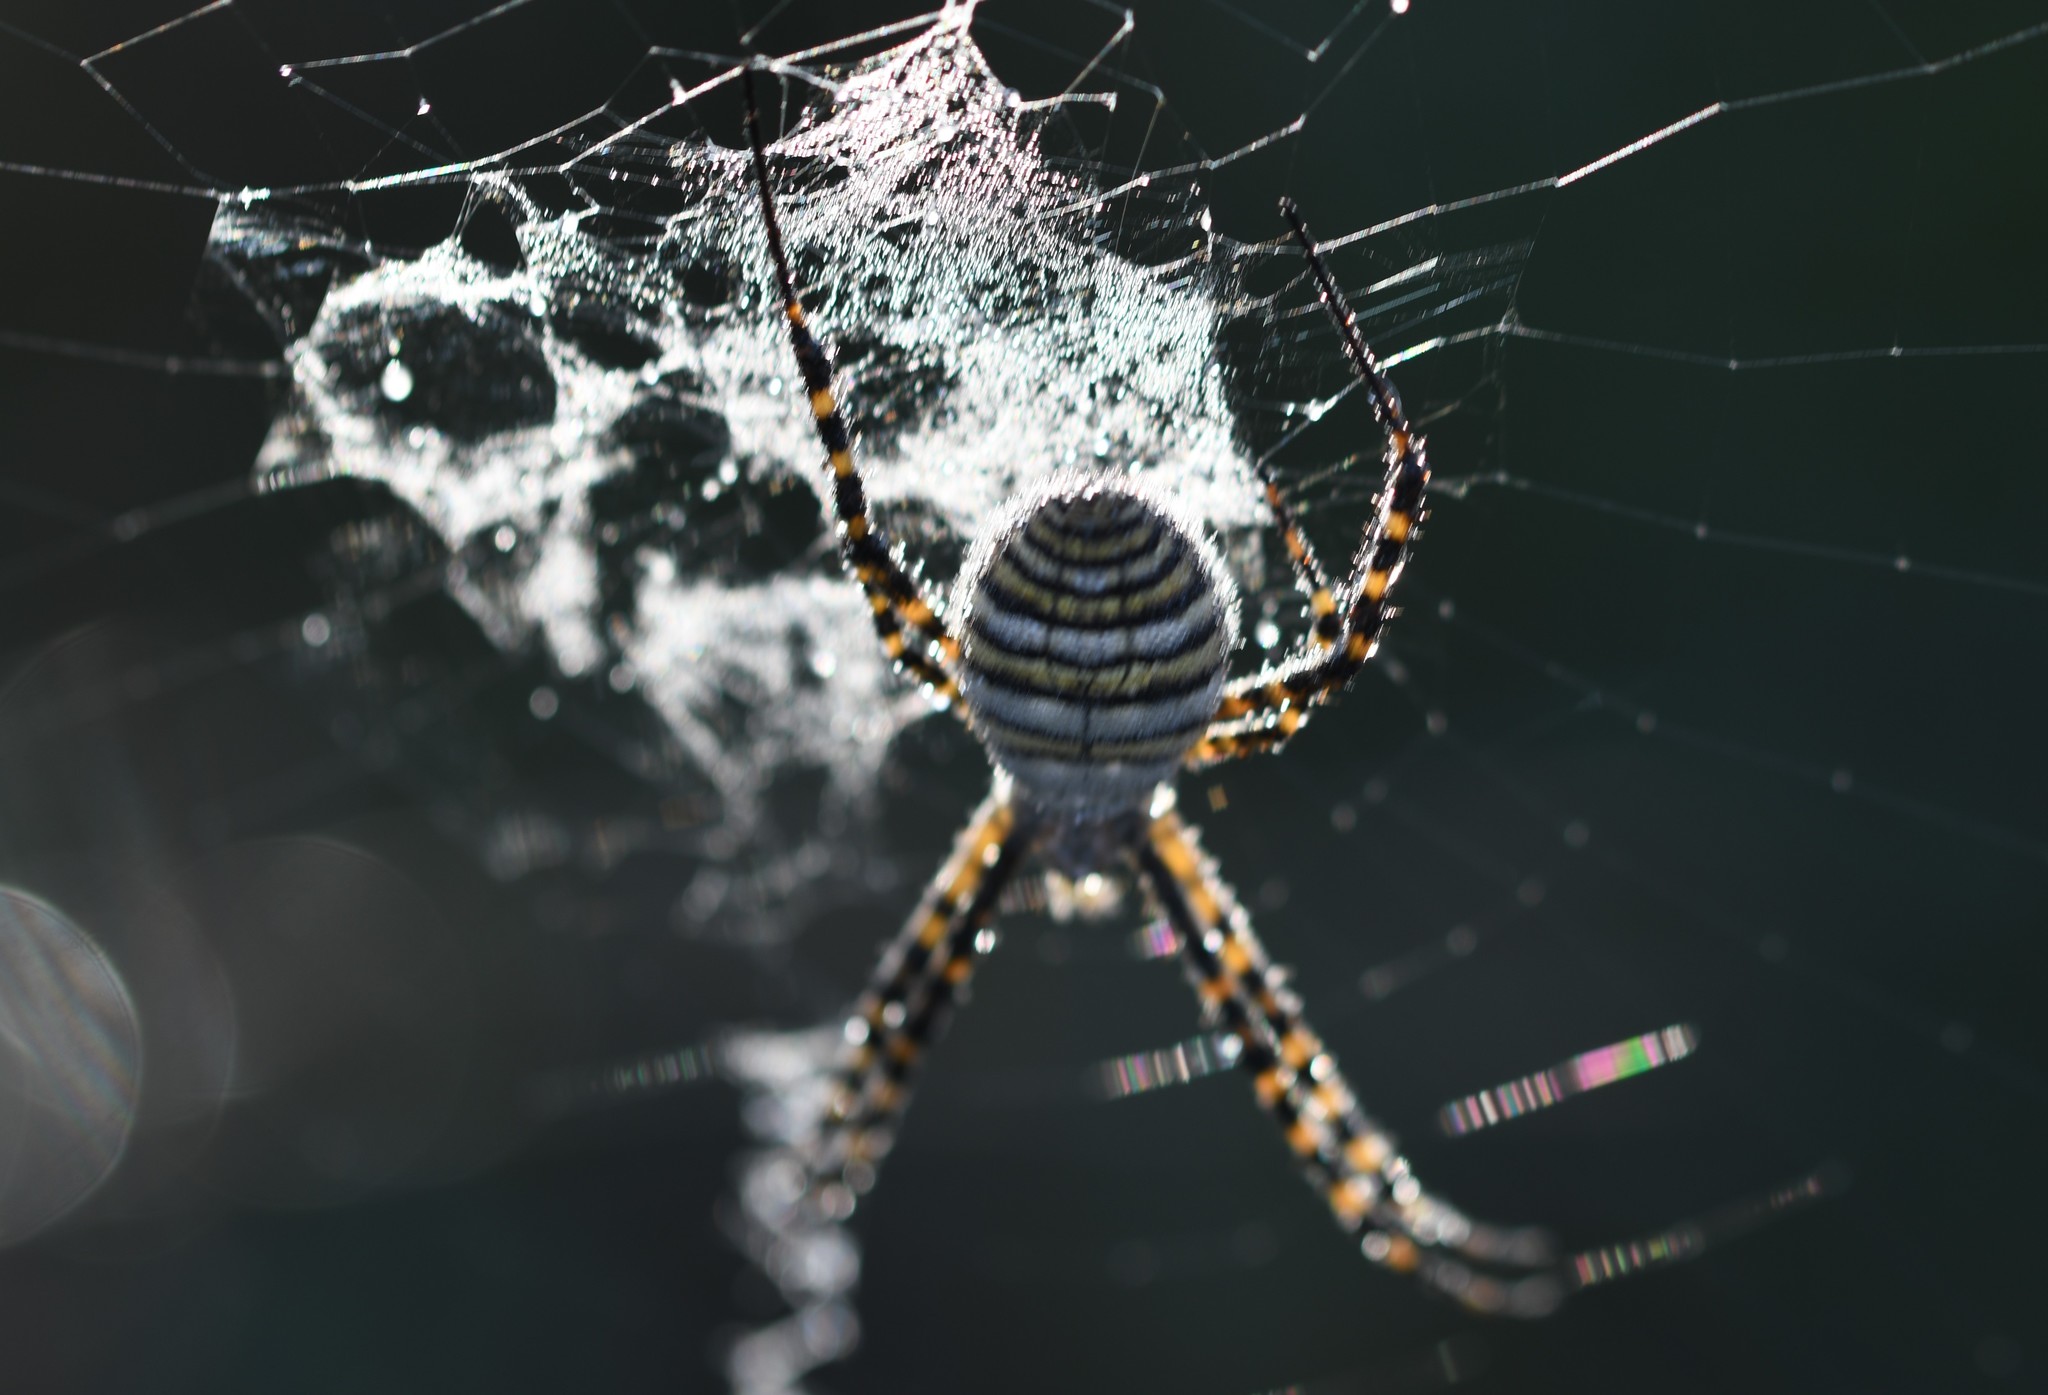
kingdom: Animalia
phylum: Arthropoda
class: Arachnida
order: Araneae
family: Araneidae
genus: Argiope
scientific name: Argiope trifasciata
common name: Banded garden spider
